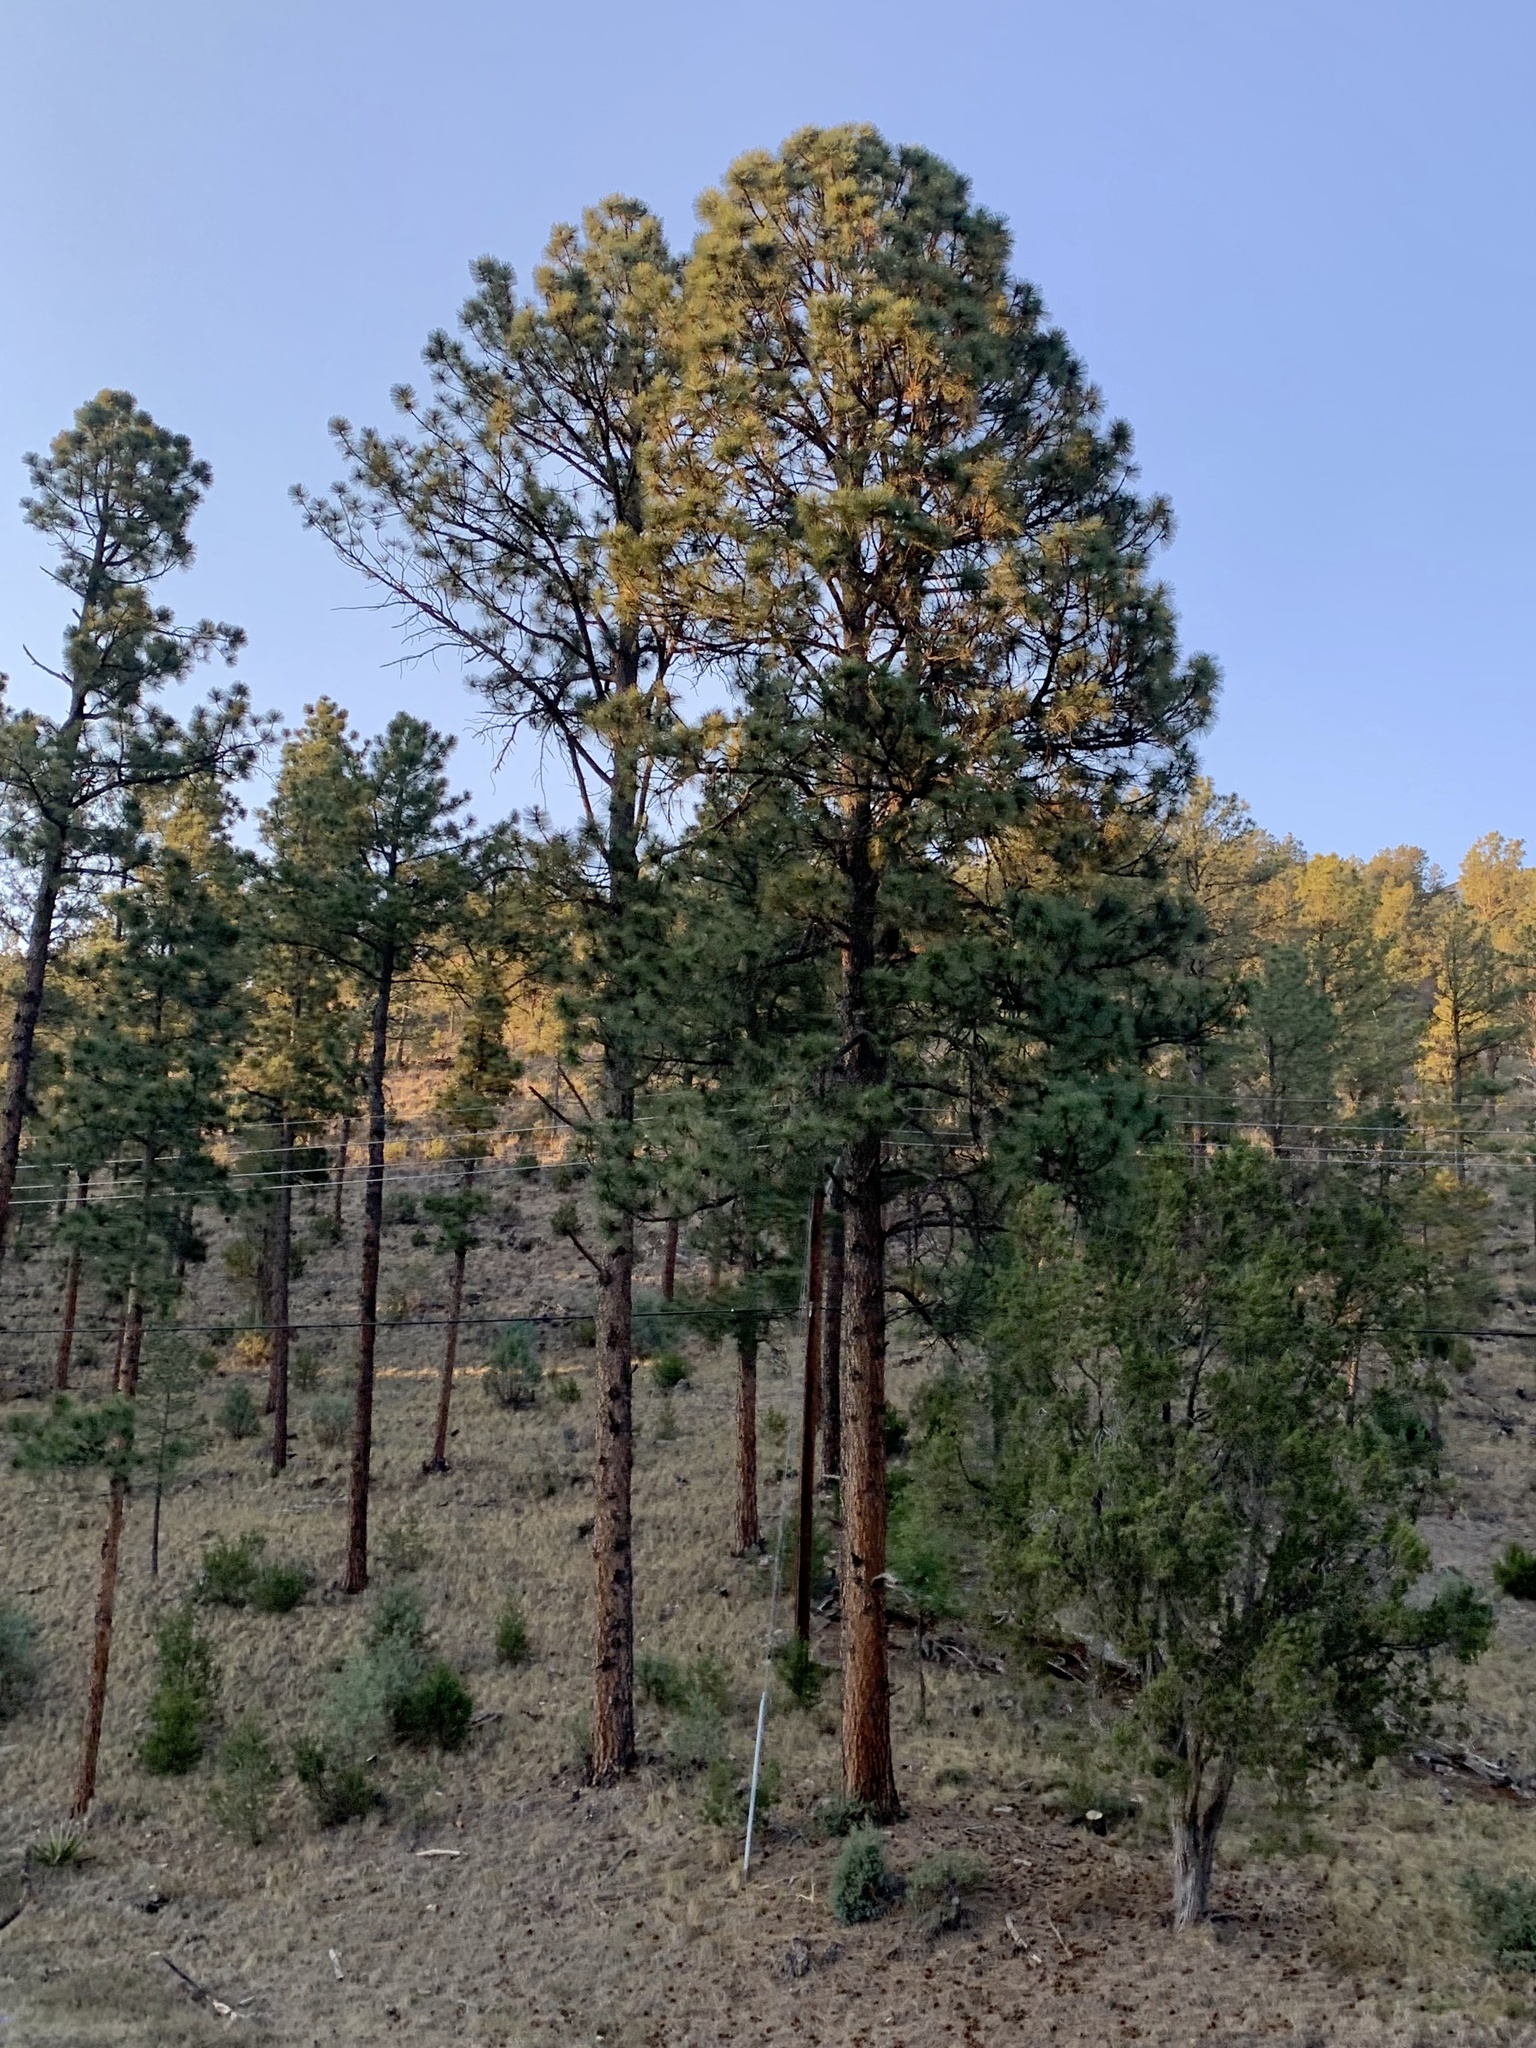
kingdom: Plantae
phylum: Tracheophyta
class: Pinopsida
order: Pinales
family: Pinaceae
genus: Pinus
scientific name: Pinus ponderosa
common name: Western yellow-pine
